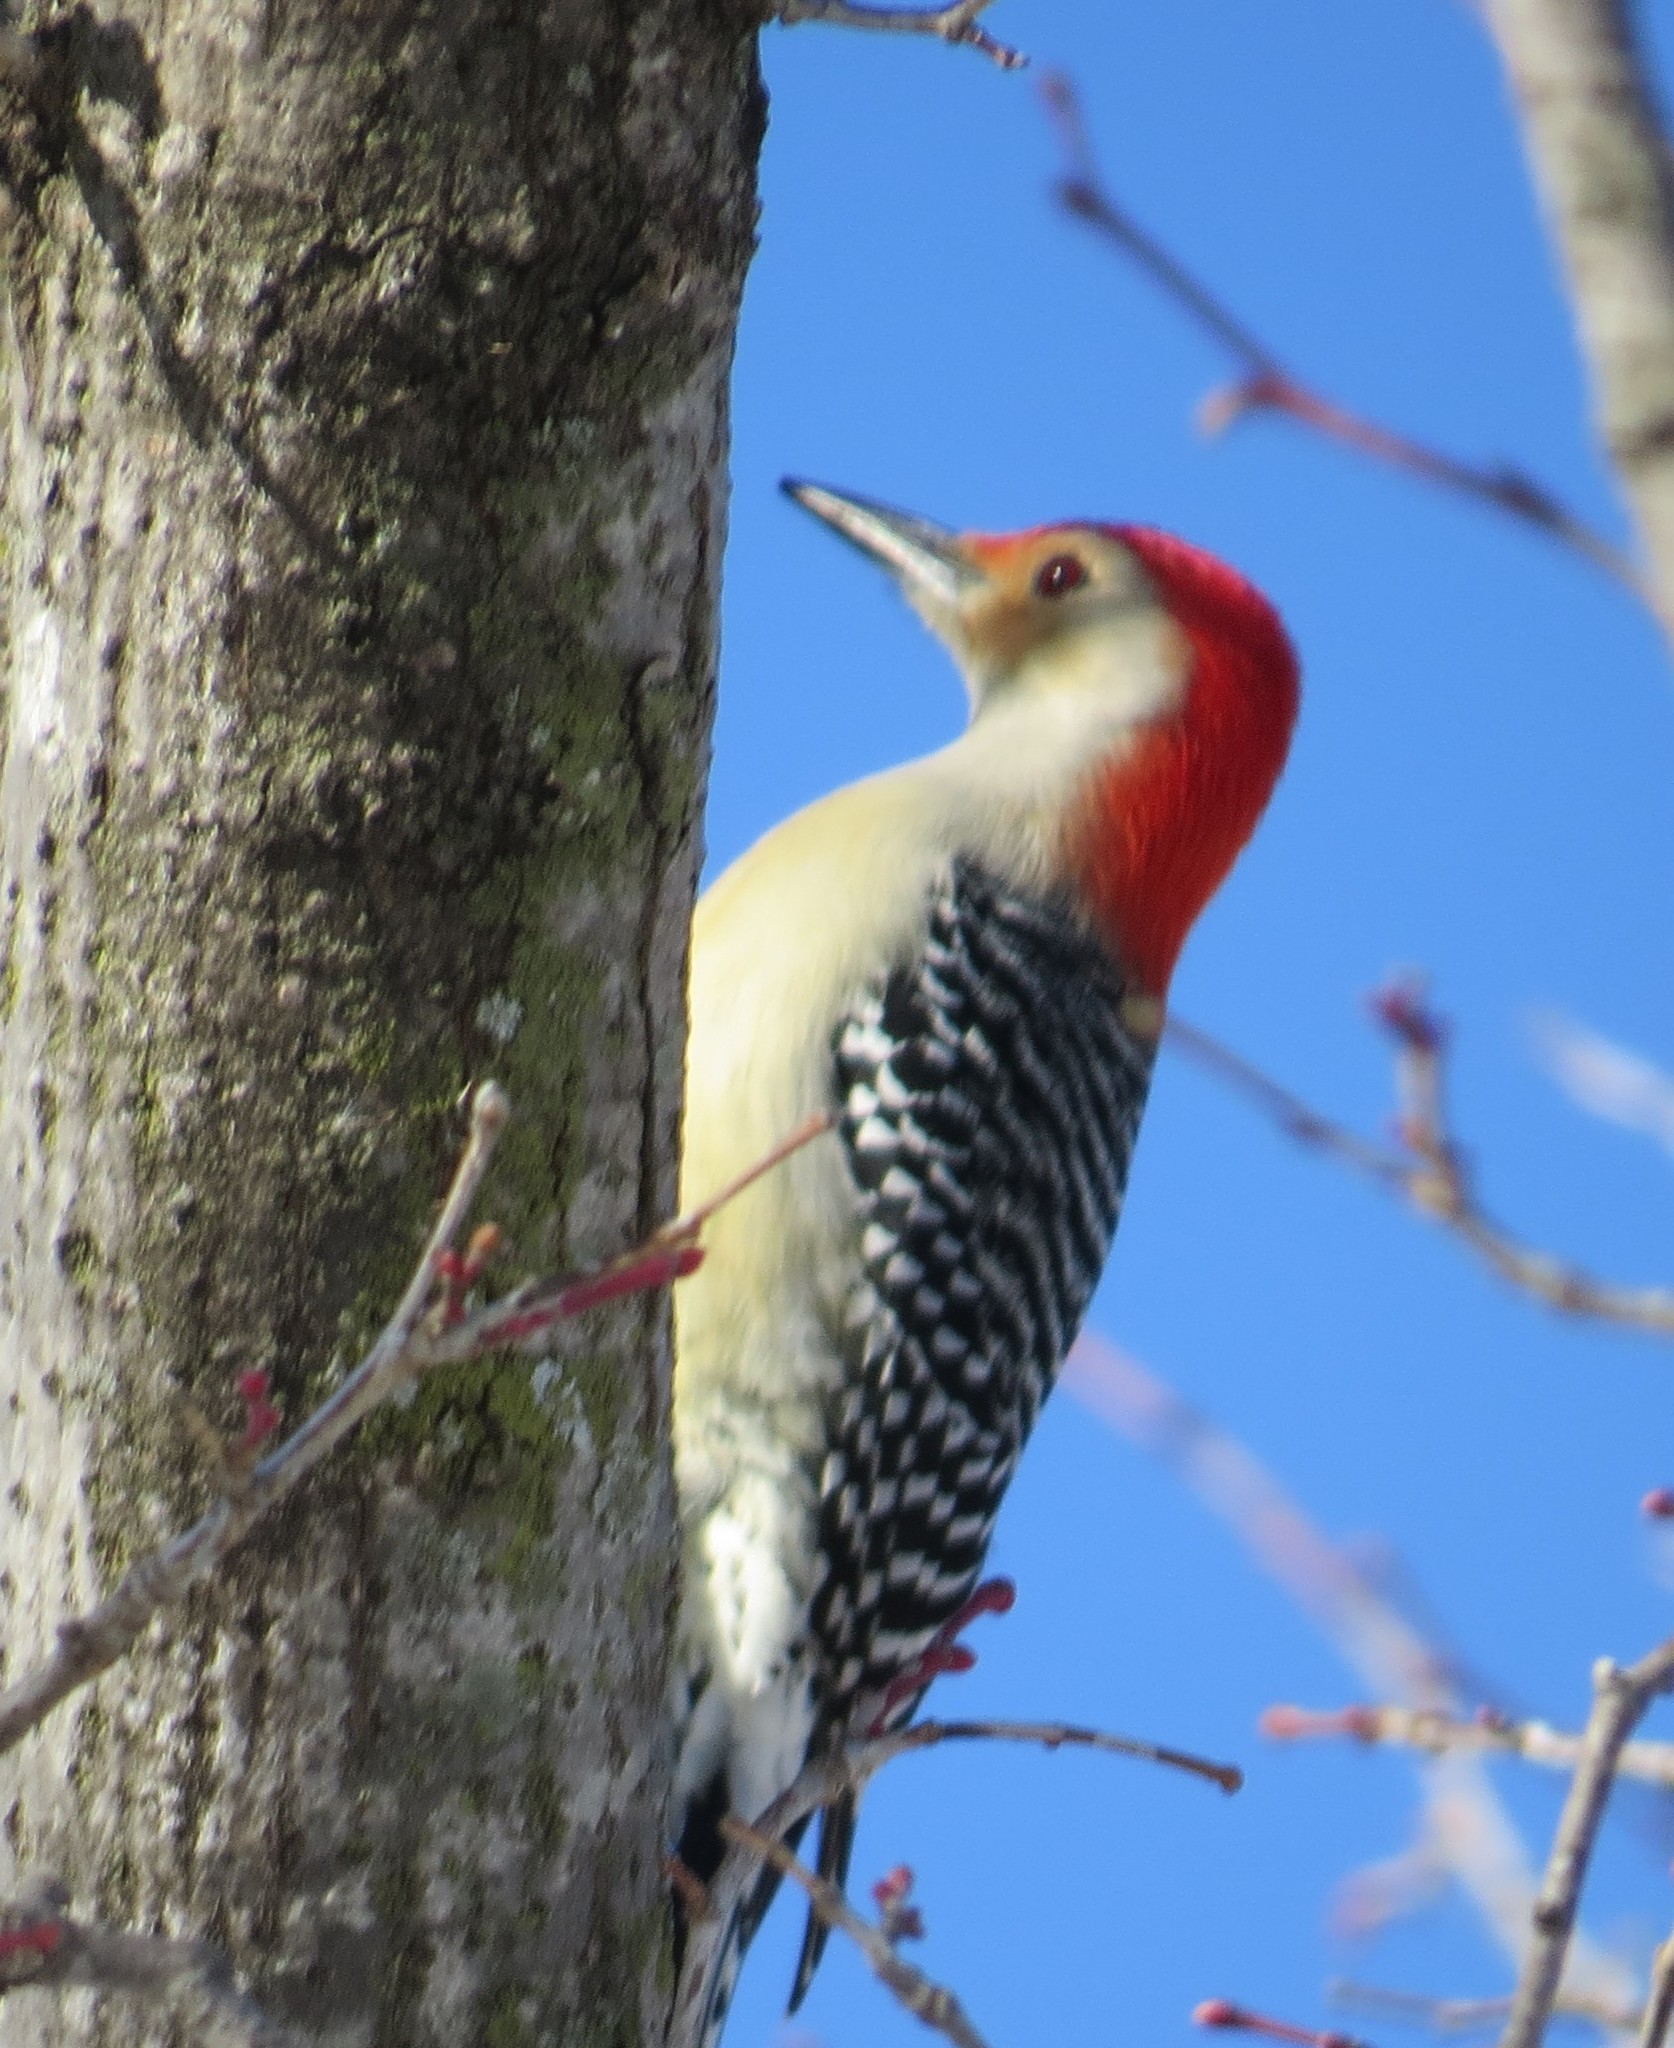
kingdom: Animalia
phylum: Chordata
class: Aves
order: Piciformes
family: Picidae
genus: Melanerpes
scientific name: Melanerpes carolinus
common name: Red-bellied woodpecker
